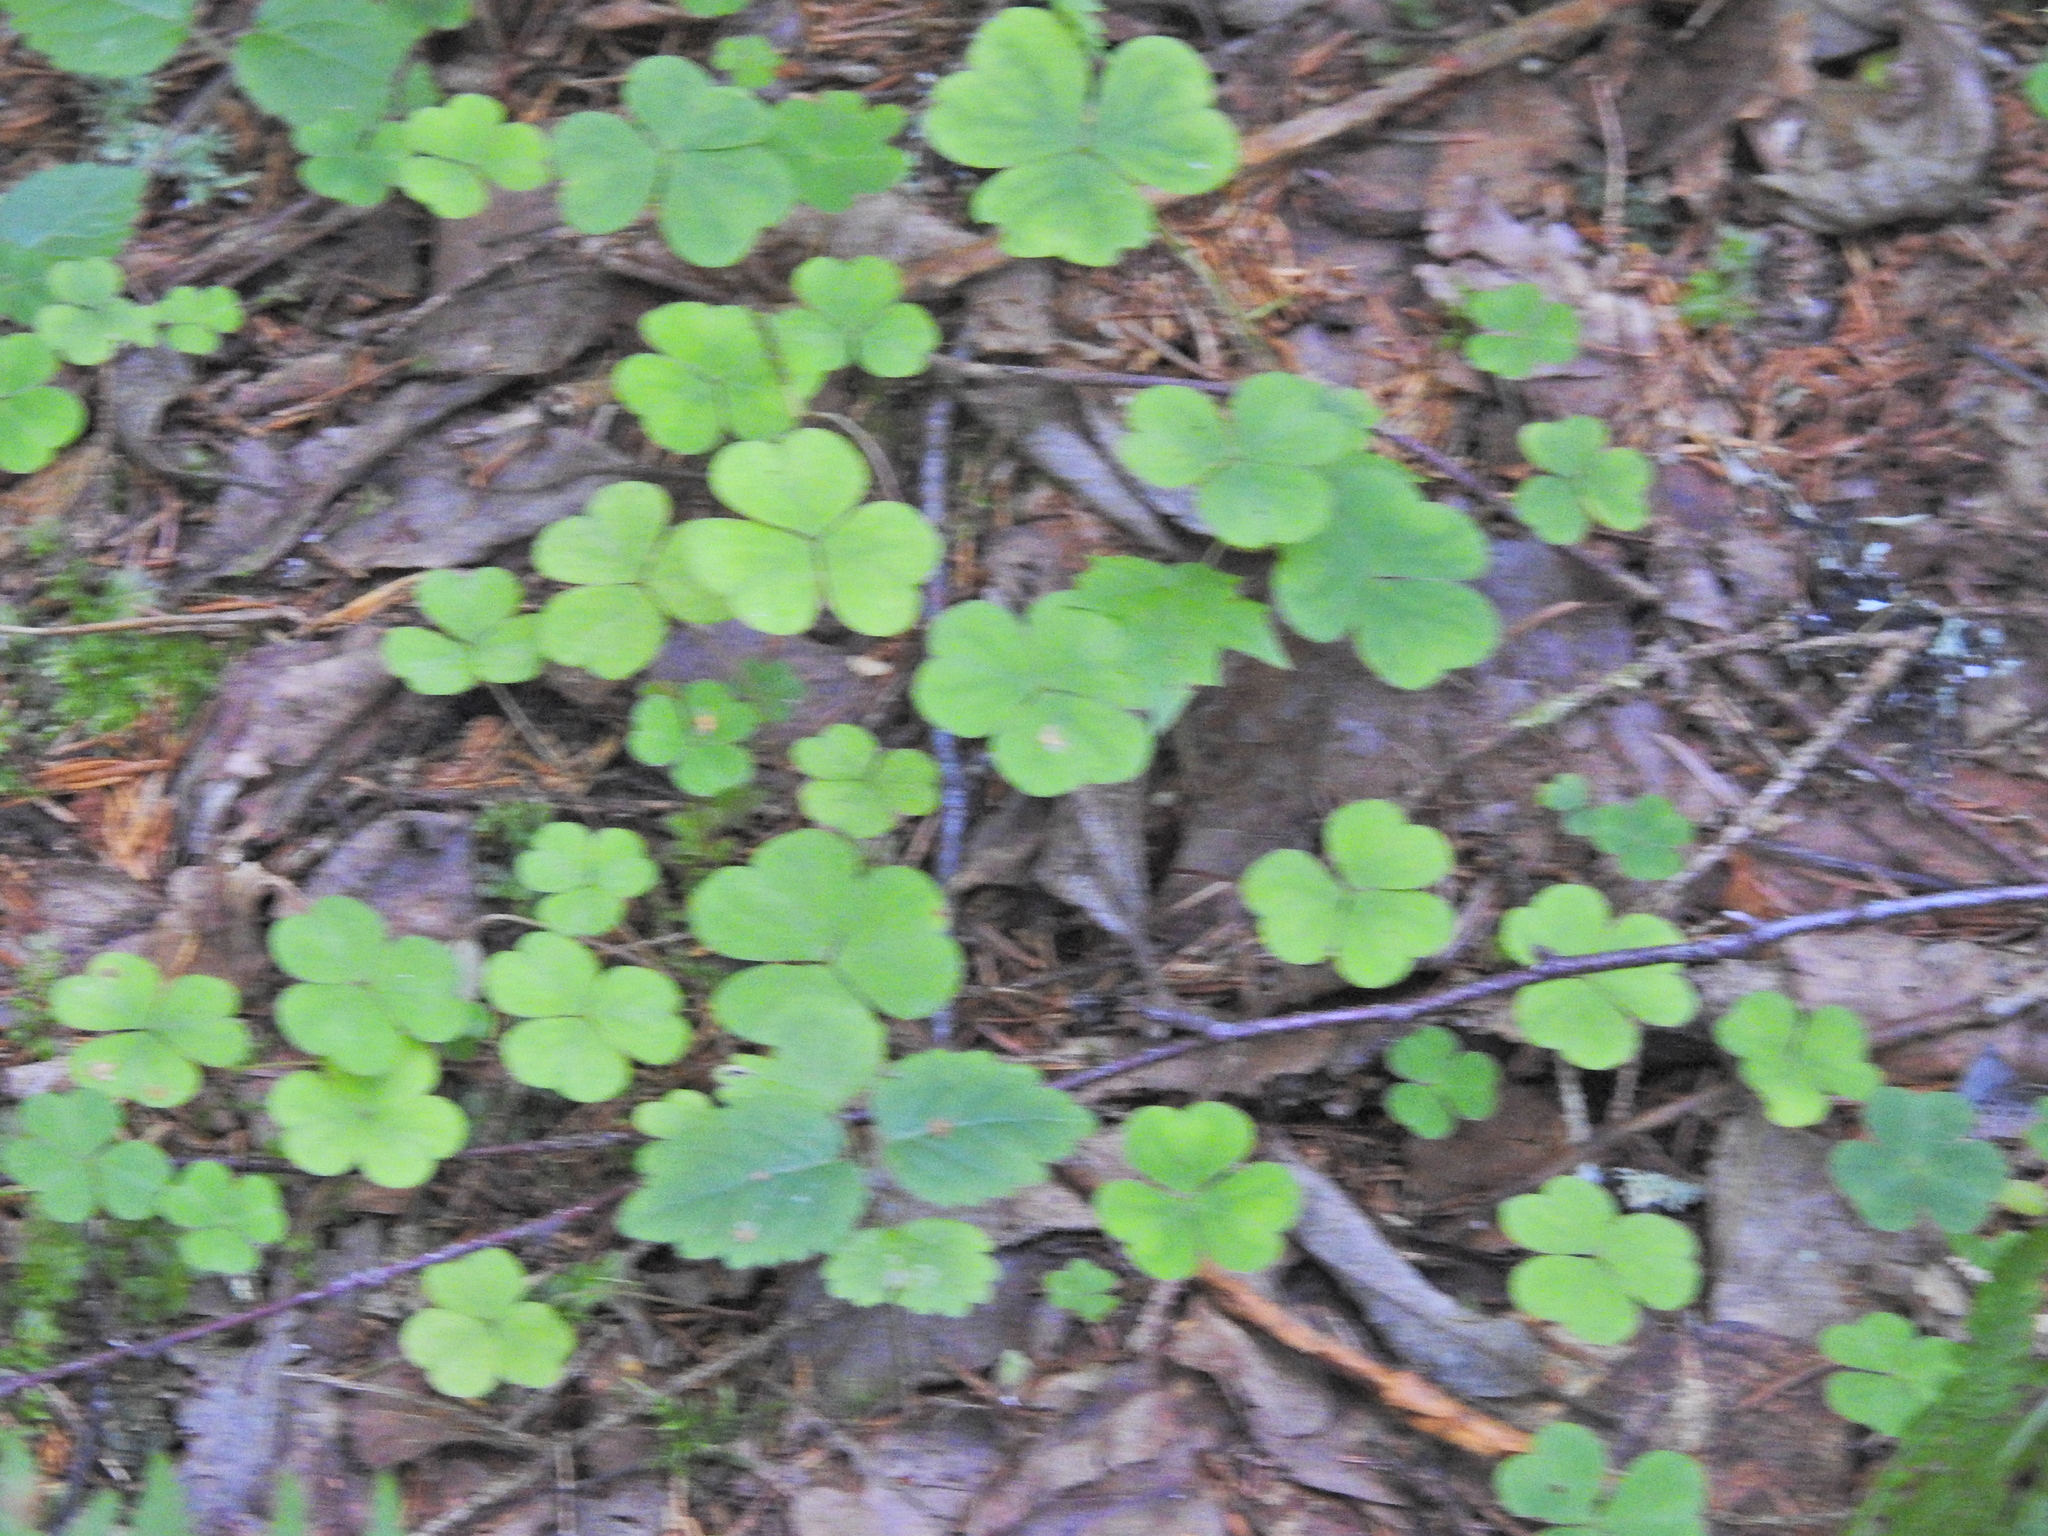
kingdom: Plantae
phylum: Tracheophyta
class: Magnoliopsida
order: Oxalidales
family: Oxalidaceae
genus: Oxalis
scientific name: Oxalis acetosella
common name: Wood-sorrel
